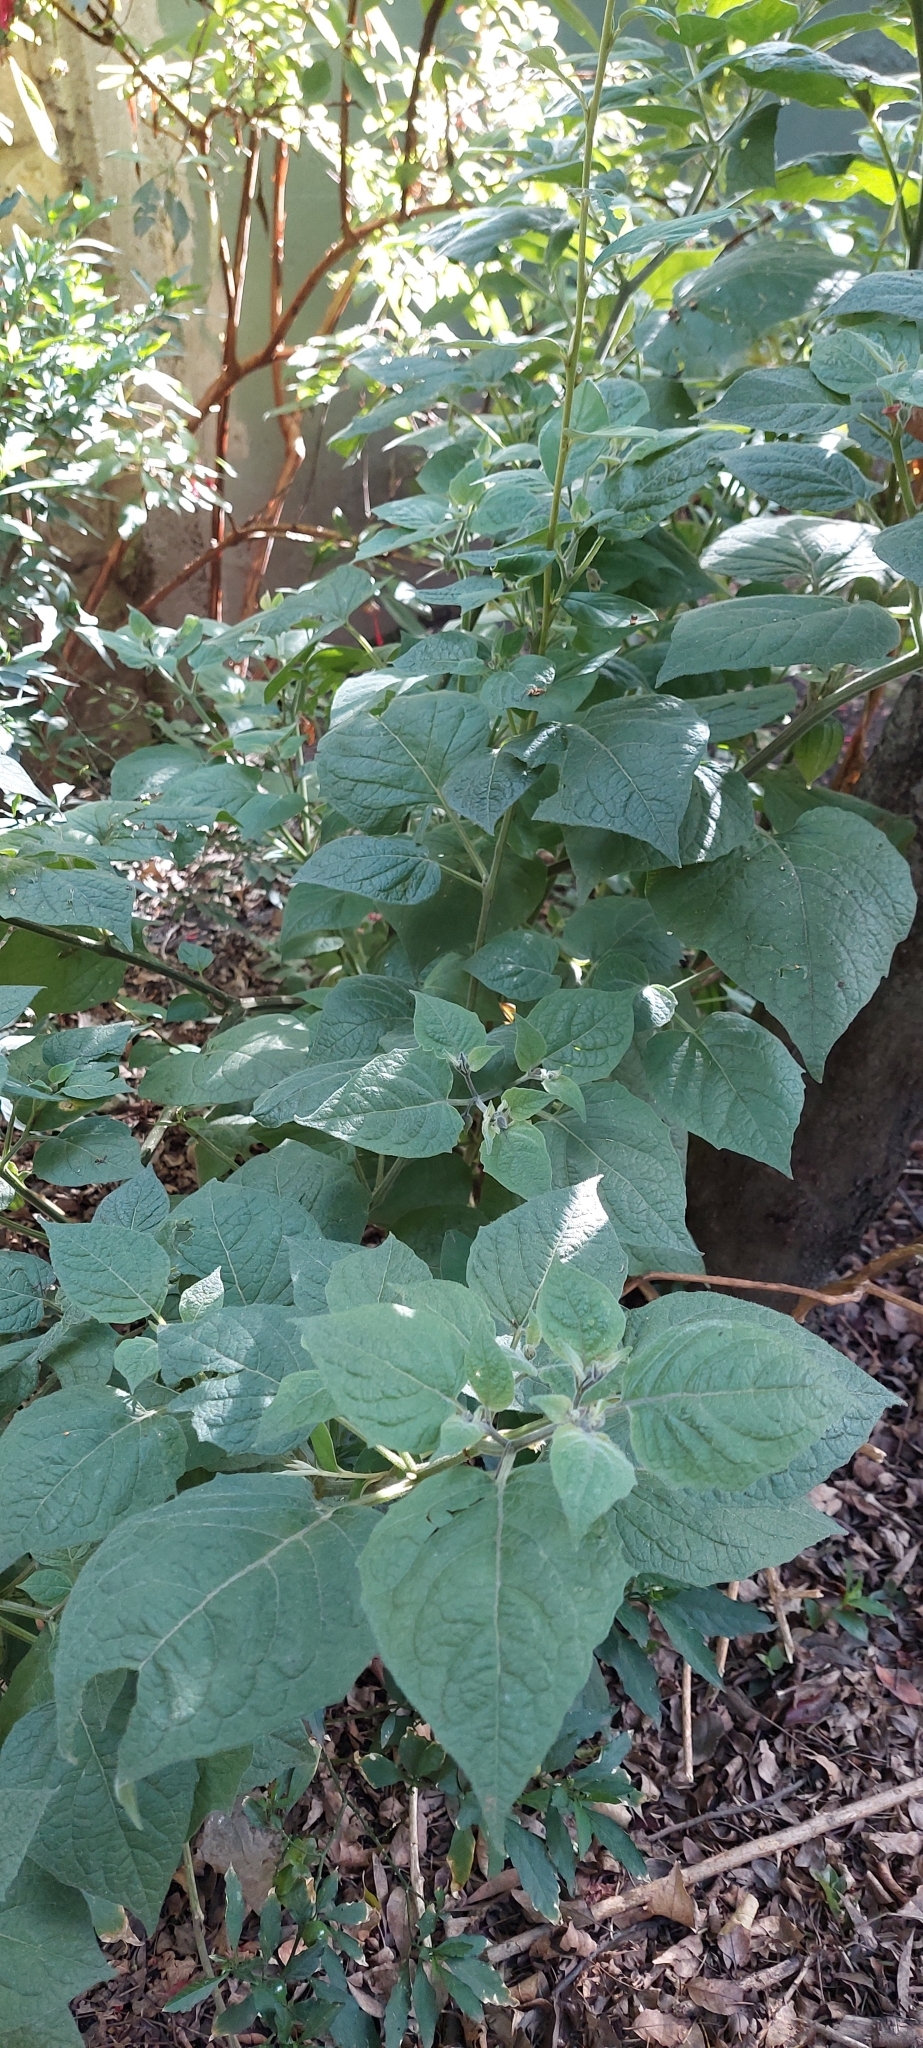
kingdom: Plantae
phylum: Tracheophyta
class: Magnoliopsida
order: Solanales
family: Solanaceae
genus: Physalis
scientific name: Physalis peruviana
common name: Cape-gooseberry
